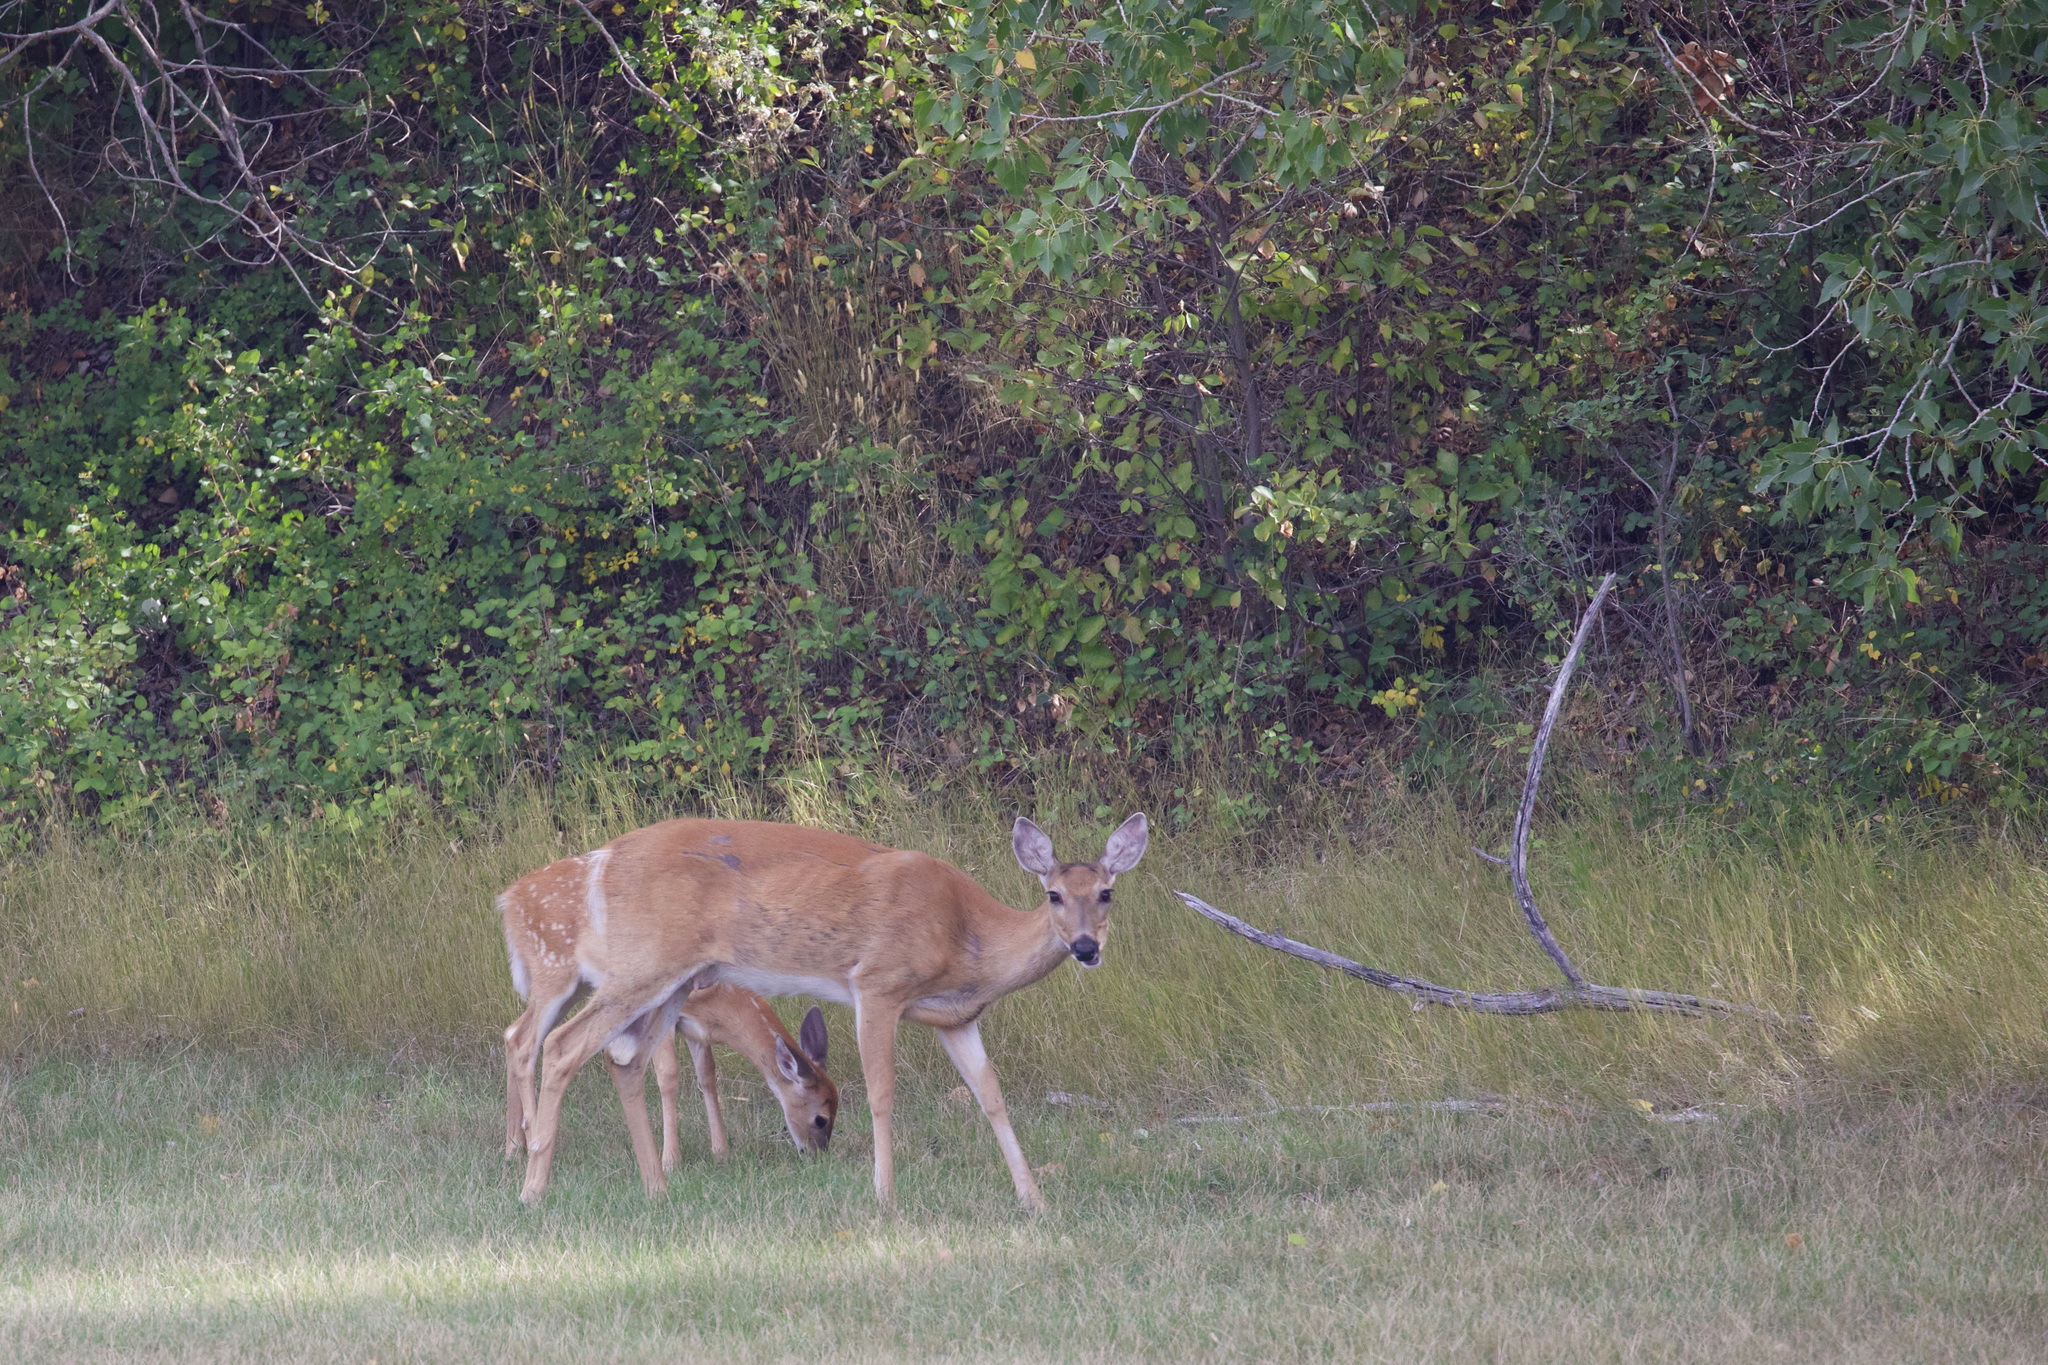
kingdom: Animalia
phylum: Chordata
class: Mammalia
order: Artiodactyla
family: Cervidae
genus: Odocoileus
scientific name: Odocoileus virginianus
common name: White-tailed deer
